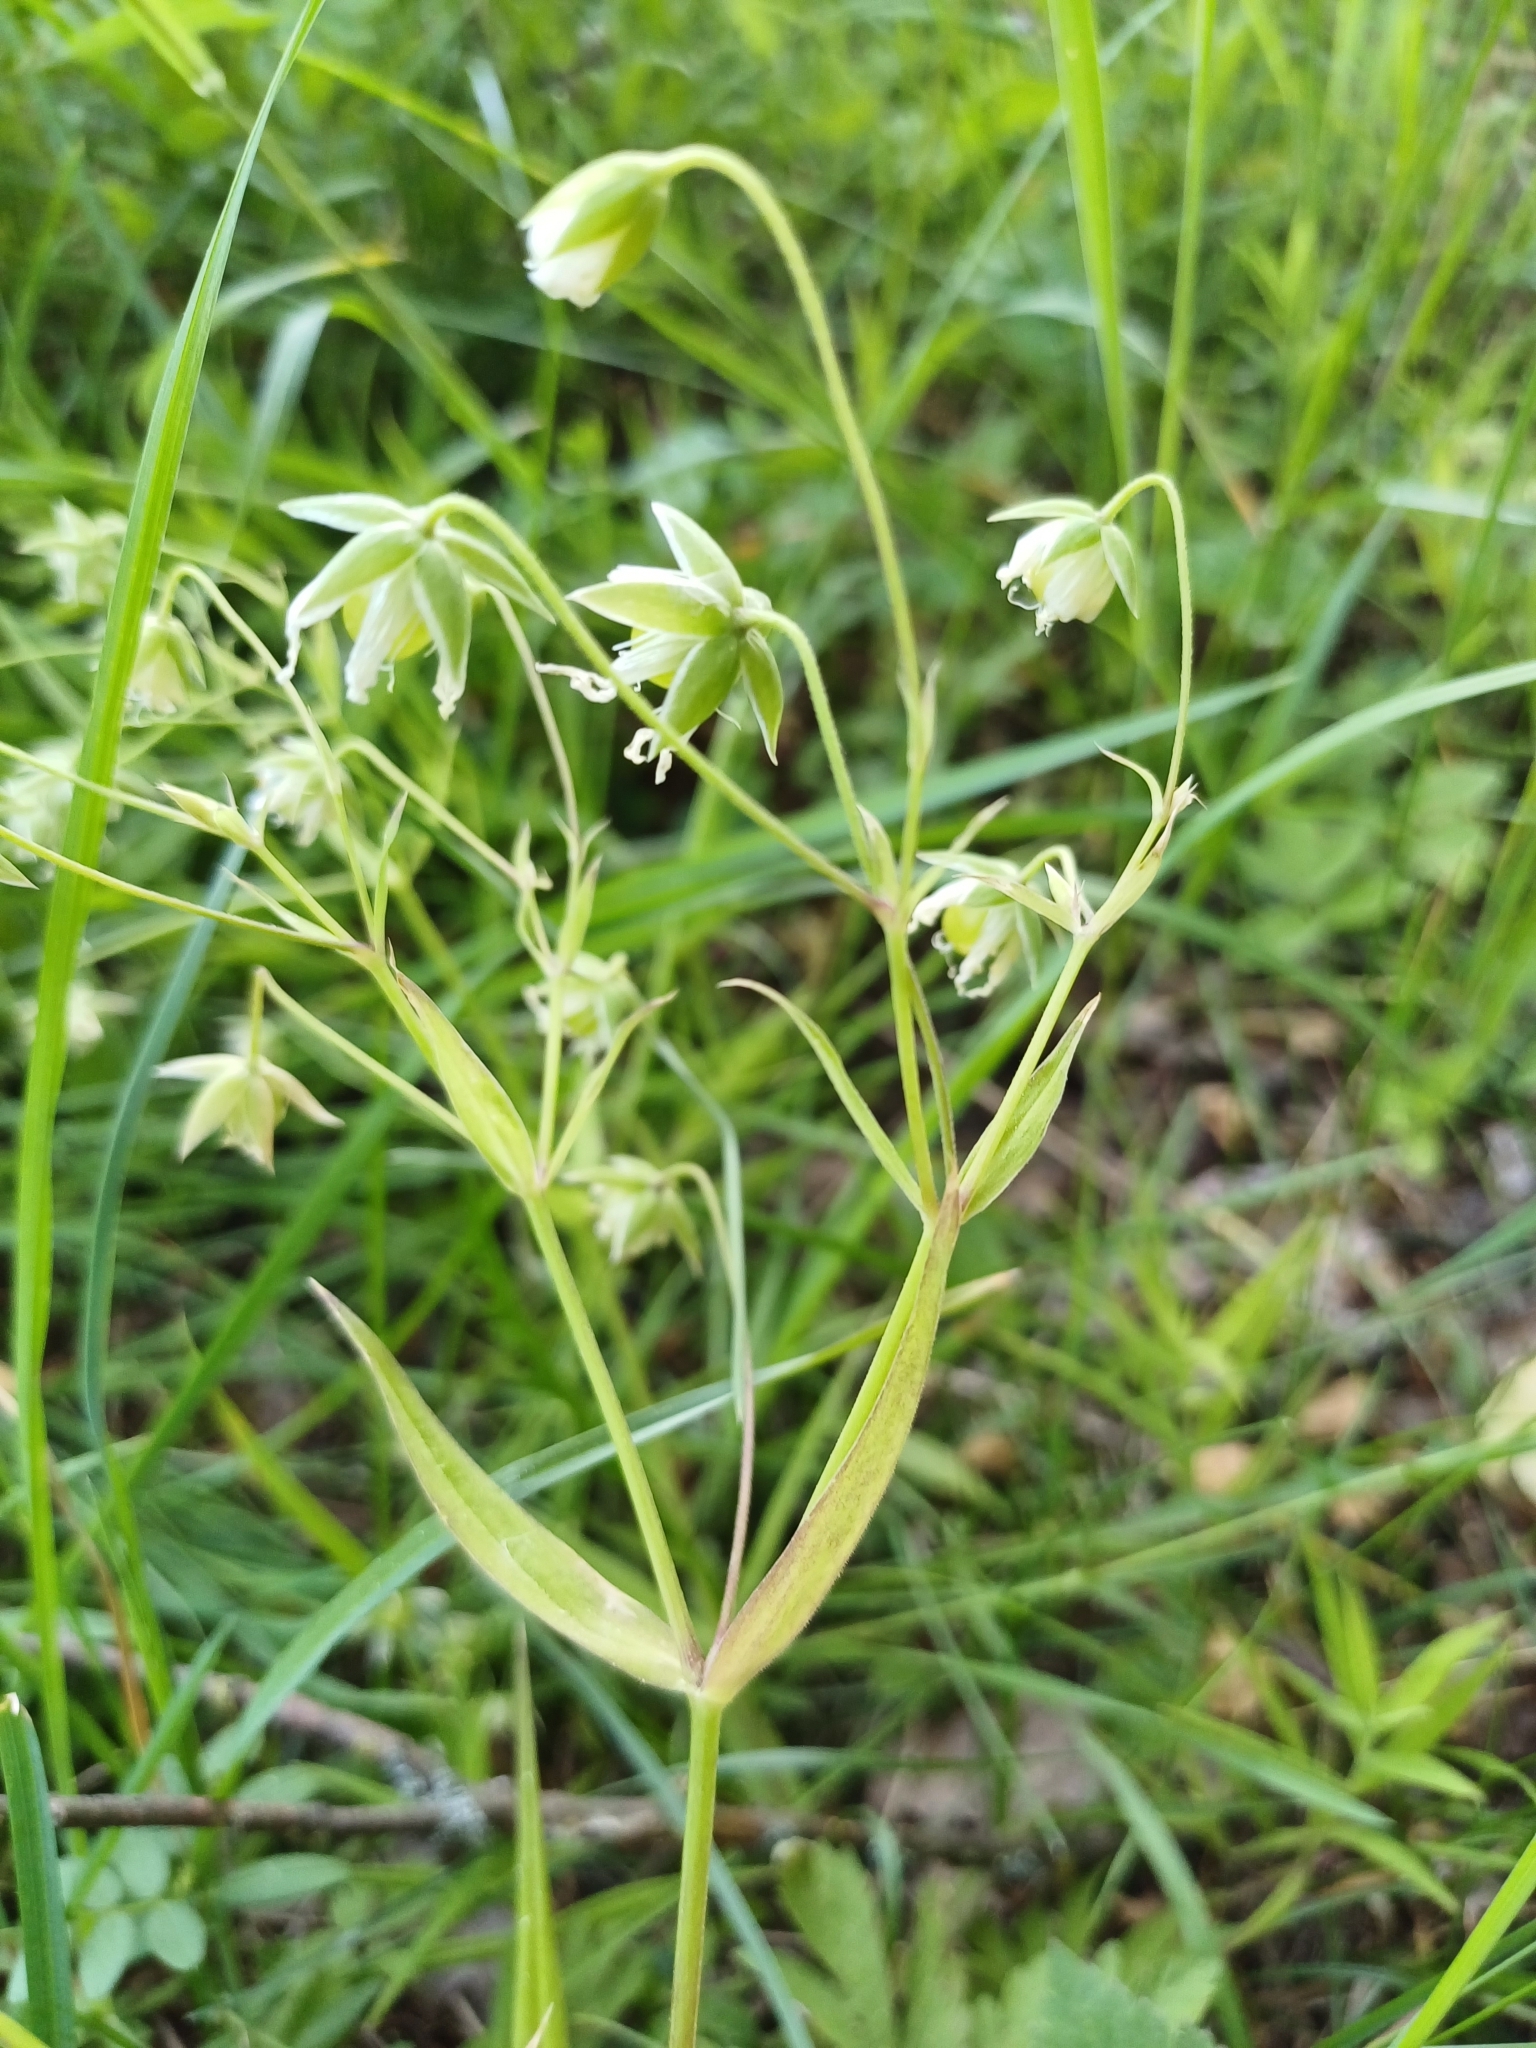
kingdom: Plantae
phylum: Tracheophyta
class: Magnoliopsida
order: Caryophyllales
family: Caryophyllaceae
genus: Rabelera
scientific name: Rabelera holostea
